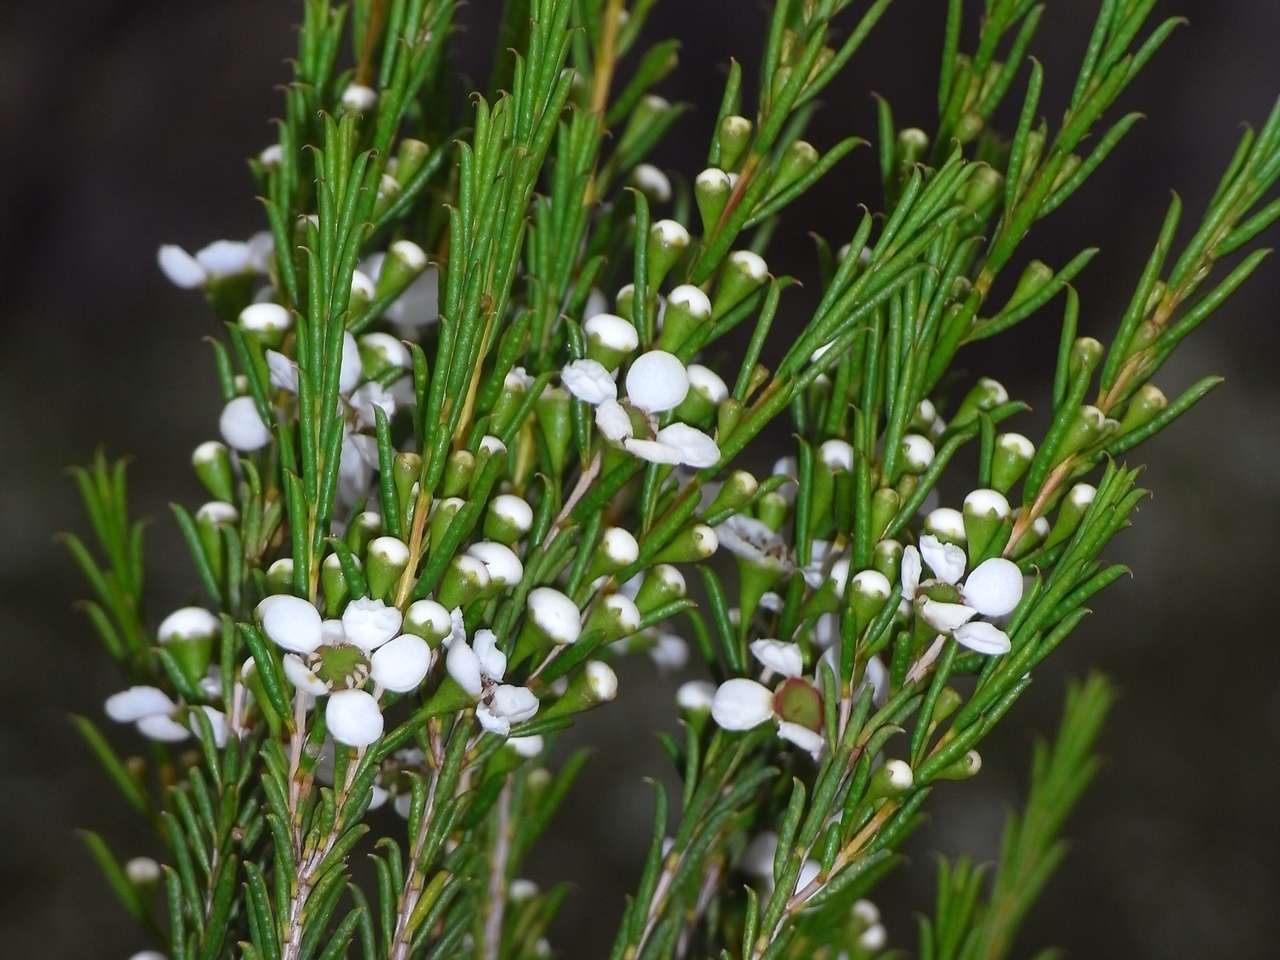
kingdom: Plantae
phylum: Tracheophyta
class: Magnoliopsida
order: Myrtales
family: Myrtaceae
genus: Hysterobaeckea
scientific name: Hysterobaeckea behrii
